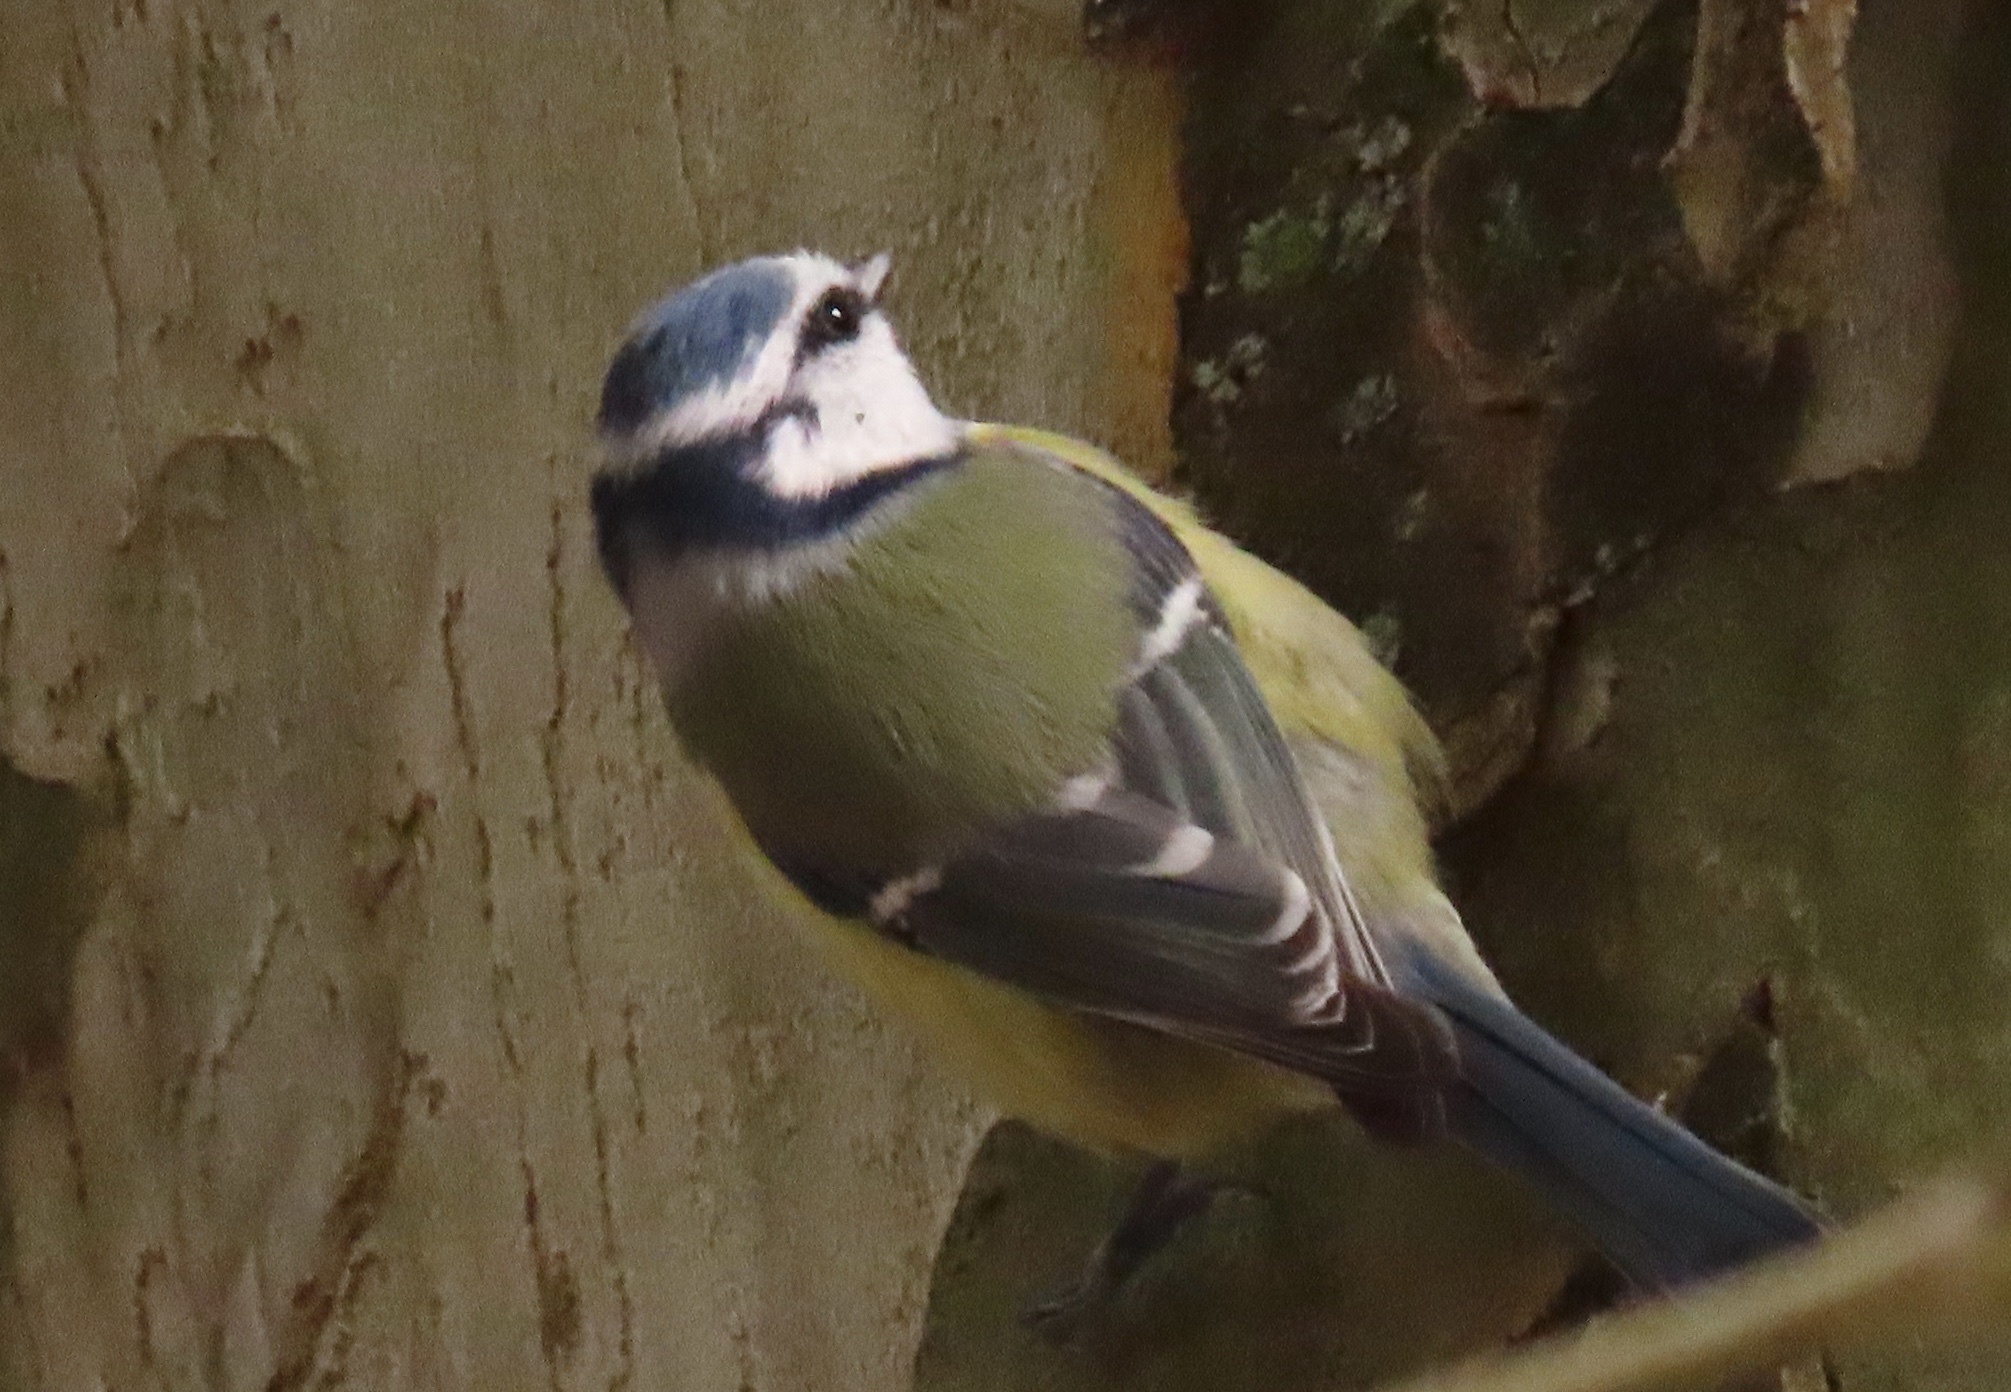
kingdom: Animalia
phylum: Chordata
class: Aves
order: Passeriformes
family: Paridae
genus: Cyanistes
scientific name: Cyanistes caeruleus
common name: Eurasian blue tit
